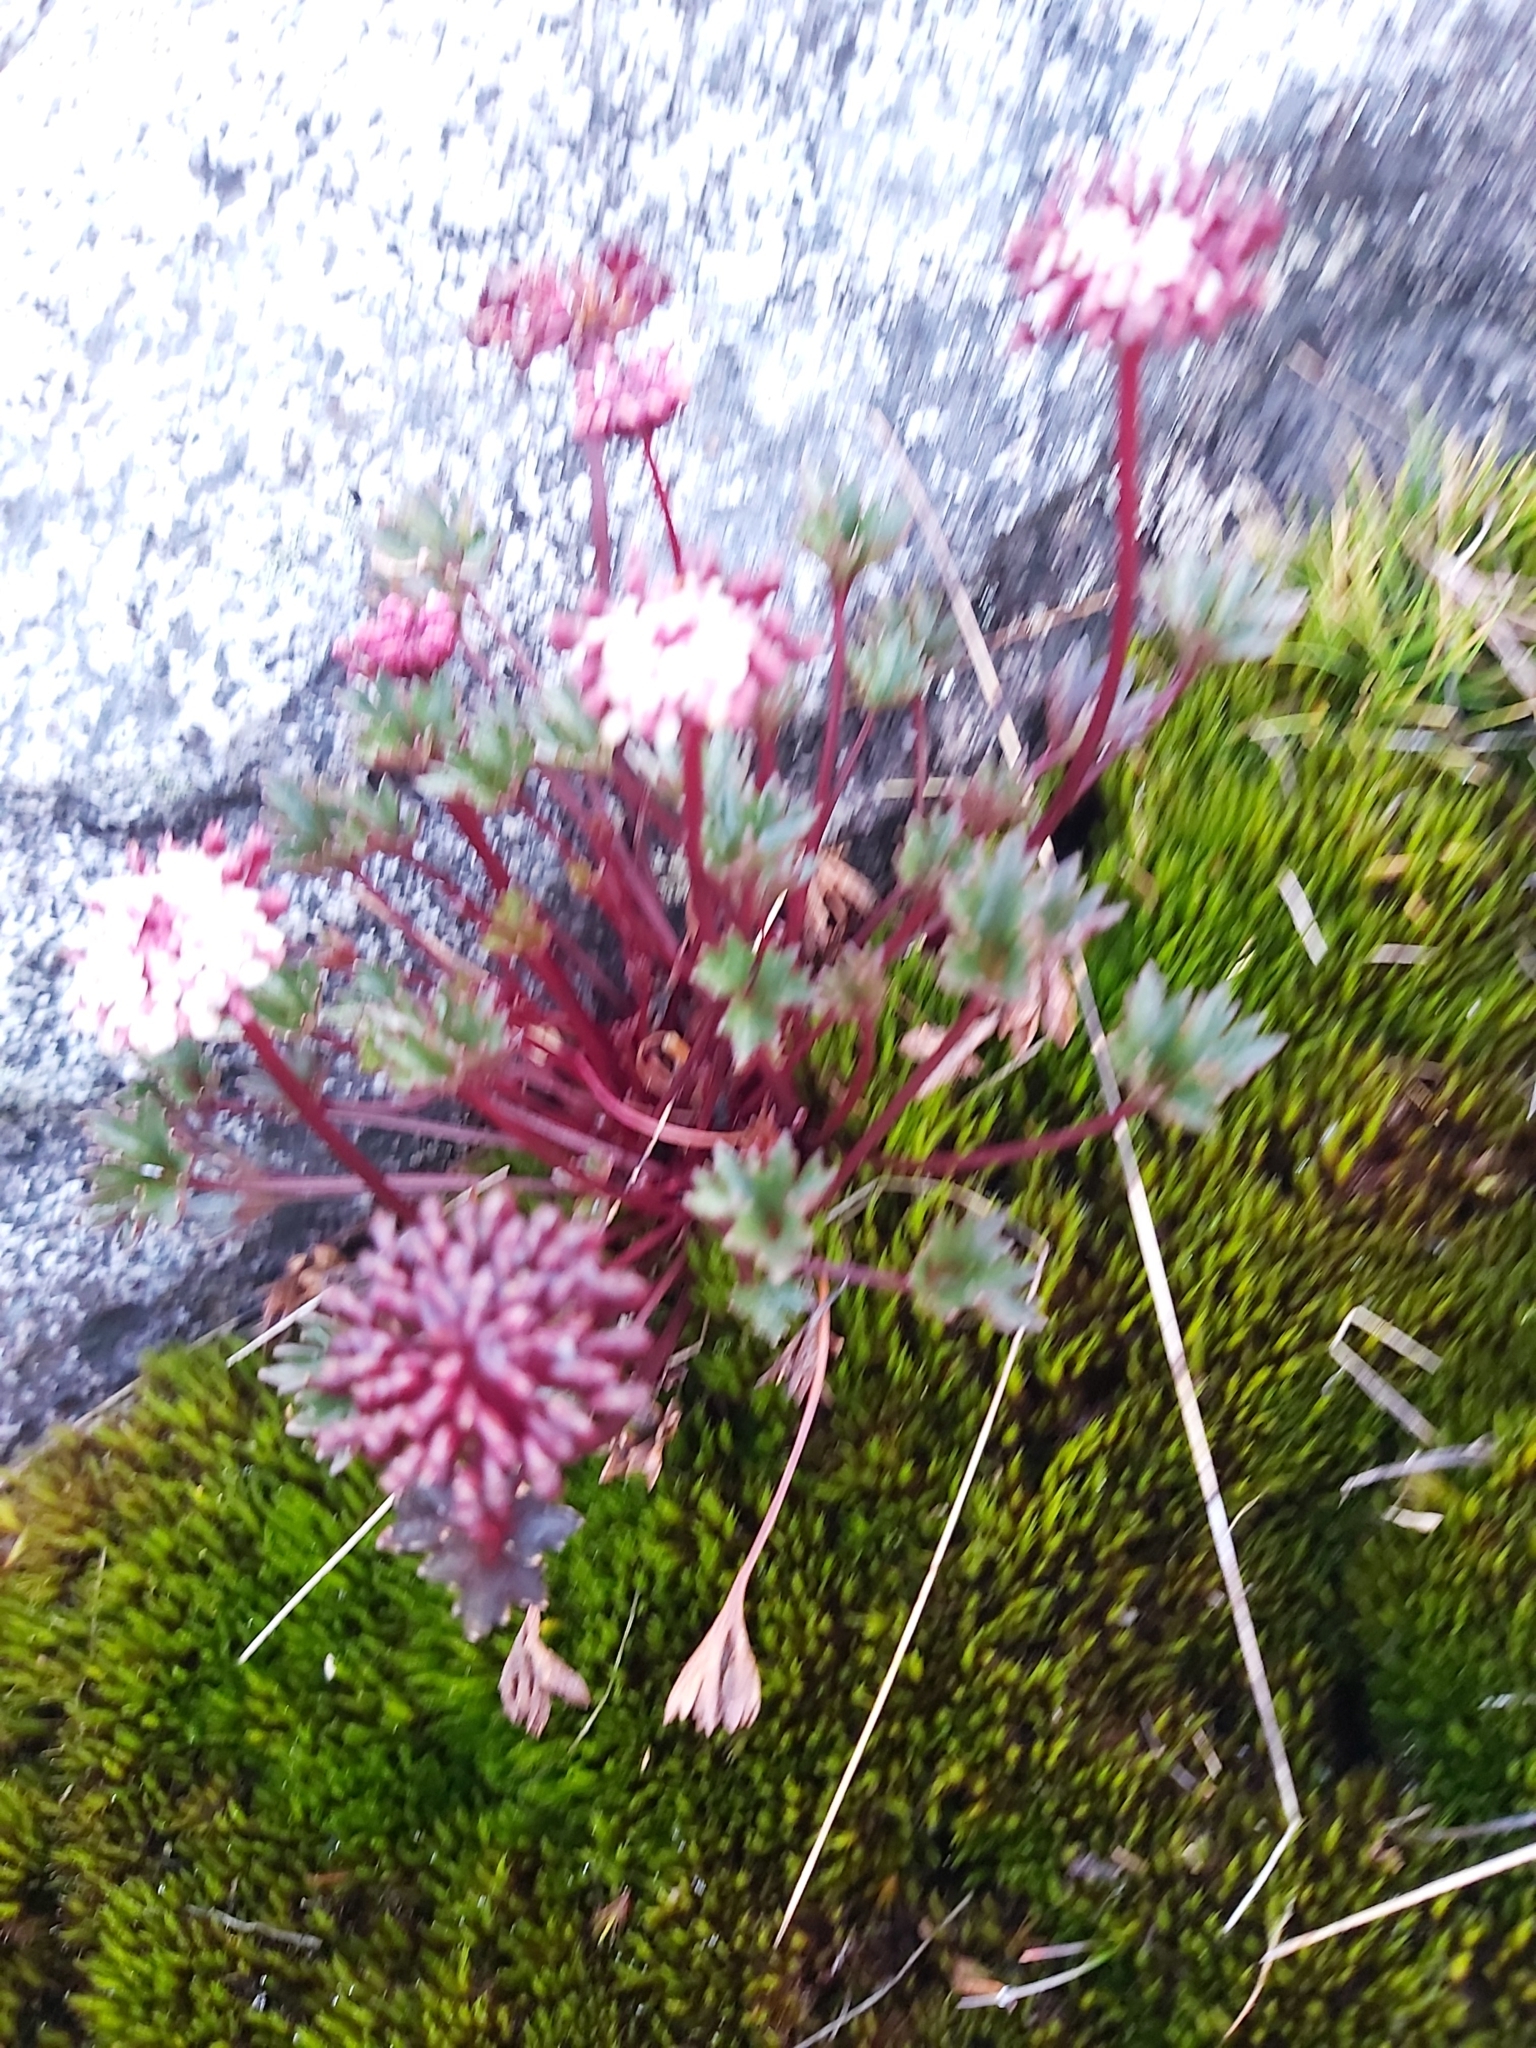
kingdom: Plantae
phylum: Tracheophyta
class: Magnoliopsida
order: Apiales
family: Araliaceae
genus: Trachymene
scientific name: Trachymene saniculifolia
